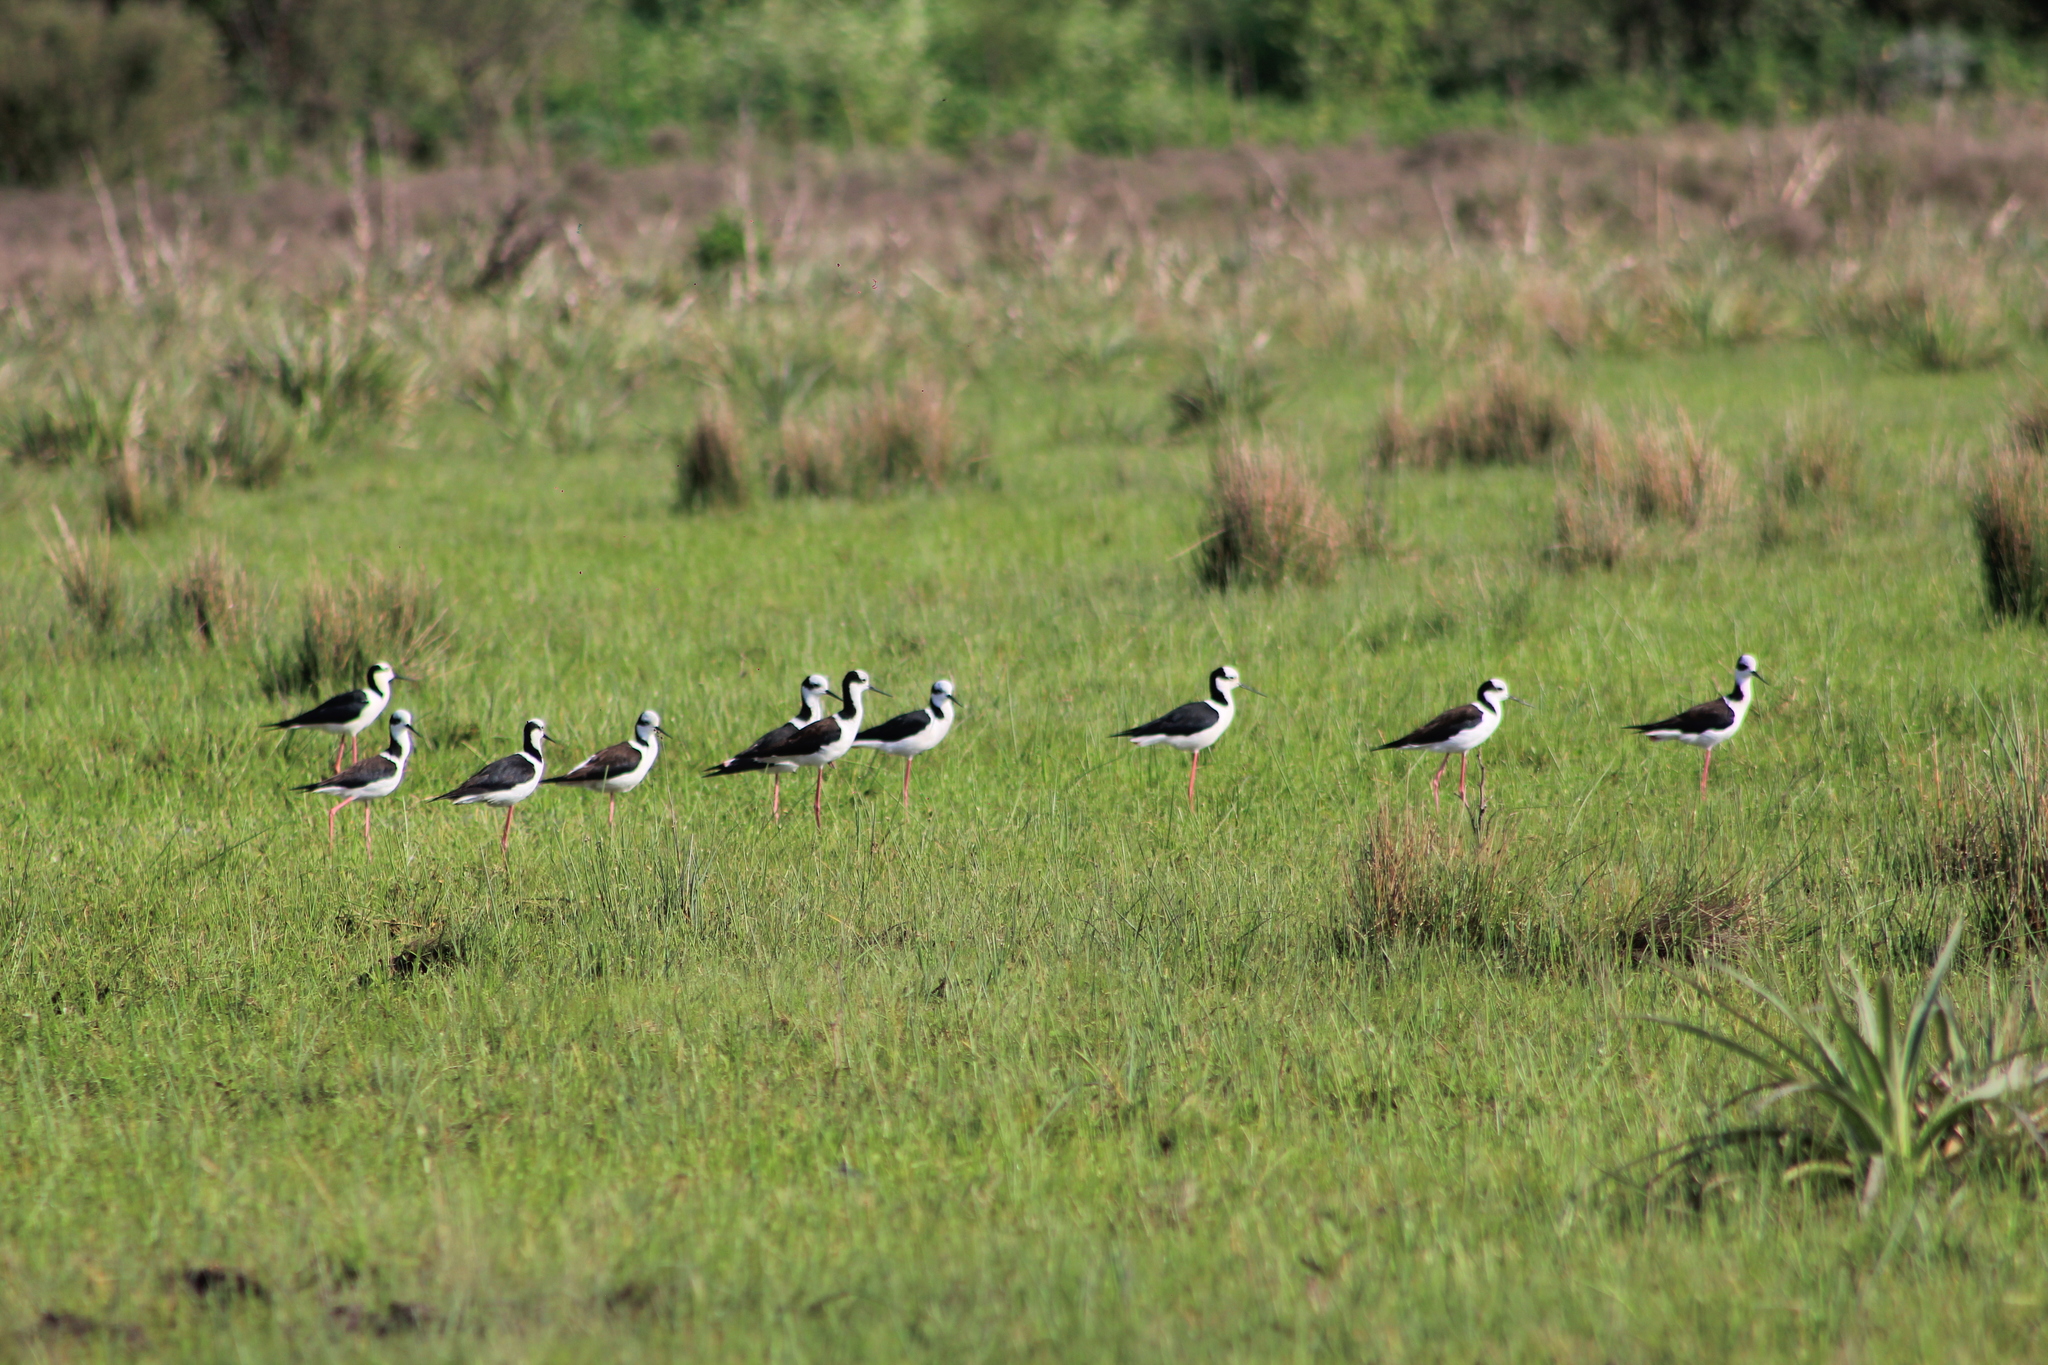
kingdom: Animalia
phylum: Chordata
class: Aves
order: Charadriiformes
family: Recurvirostridae
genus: Himantopus
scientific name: Himantopus mexicanus
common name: Black-necked stilt
